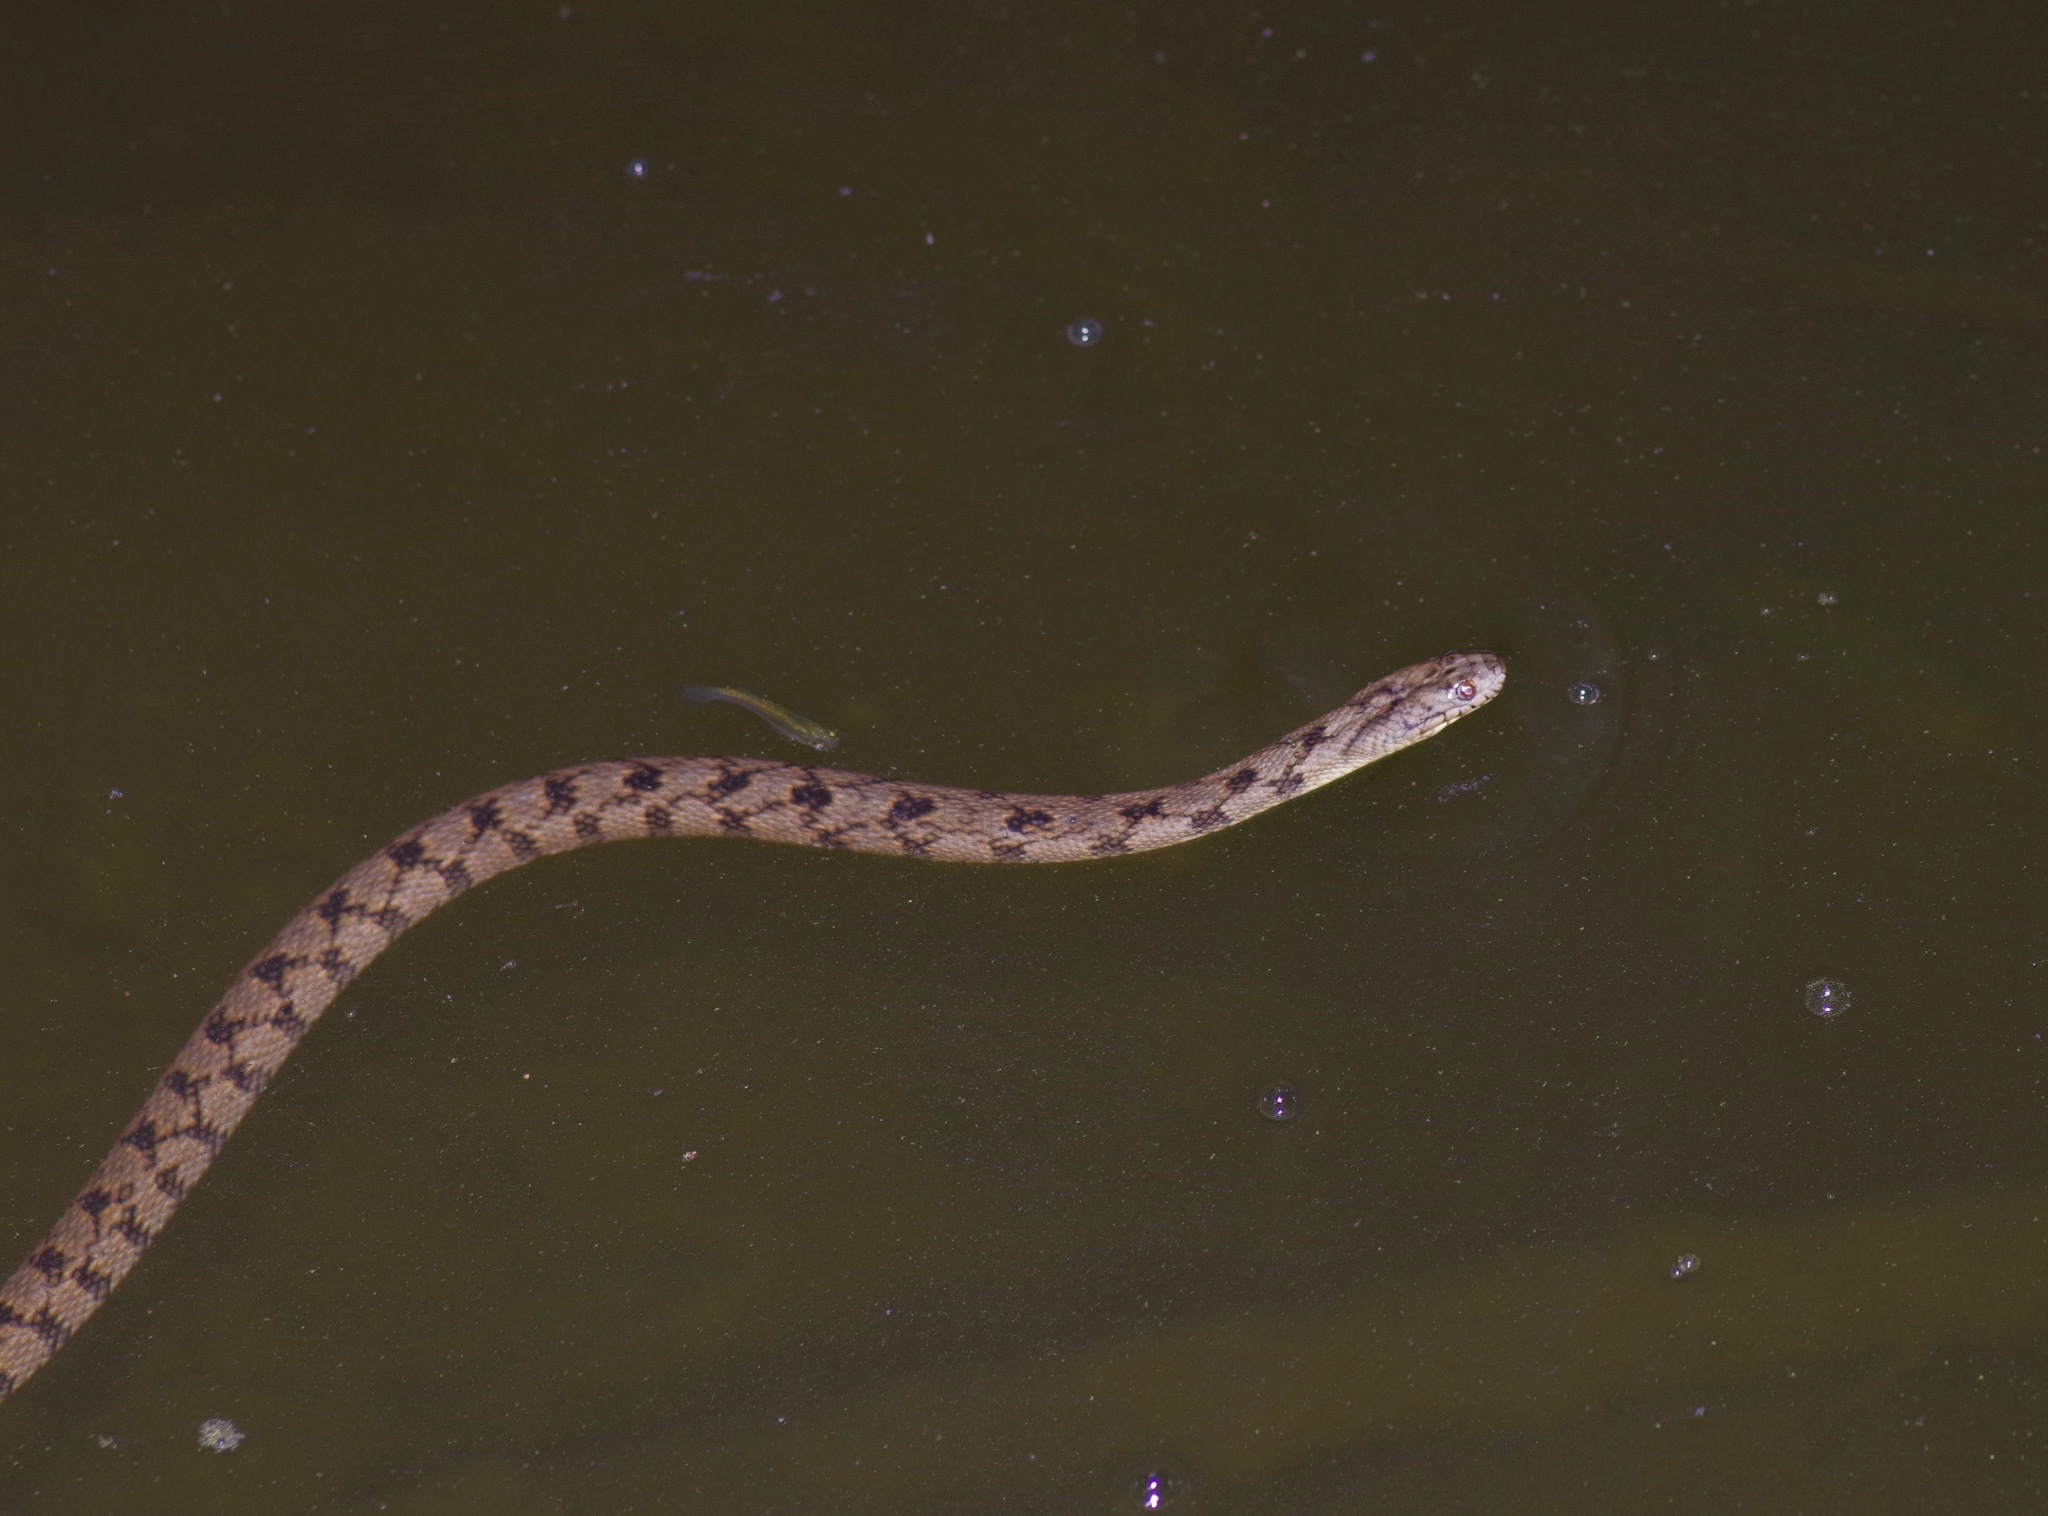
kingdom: Animalia
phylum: Chordata
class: Squamata
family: Colubridae
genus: Nerodia
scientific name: Nerodia rhombifer
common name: Diamondback water snake
